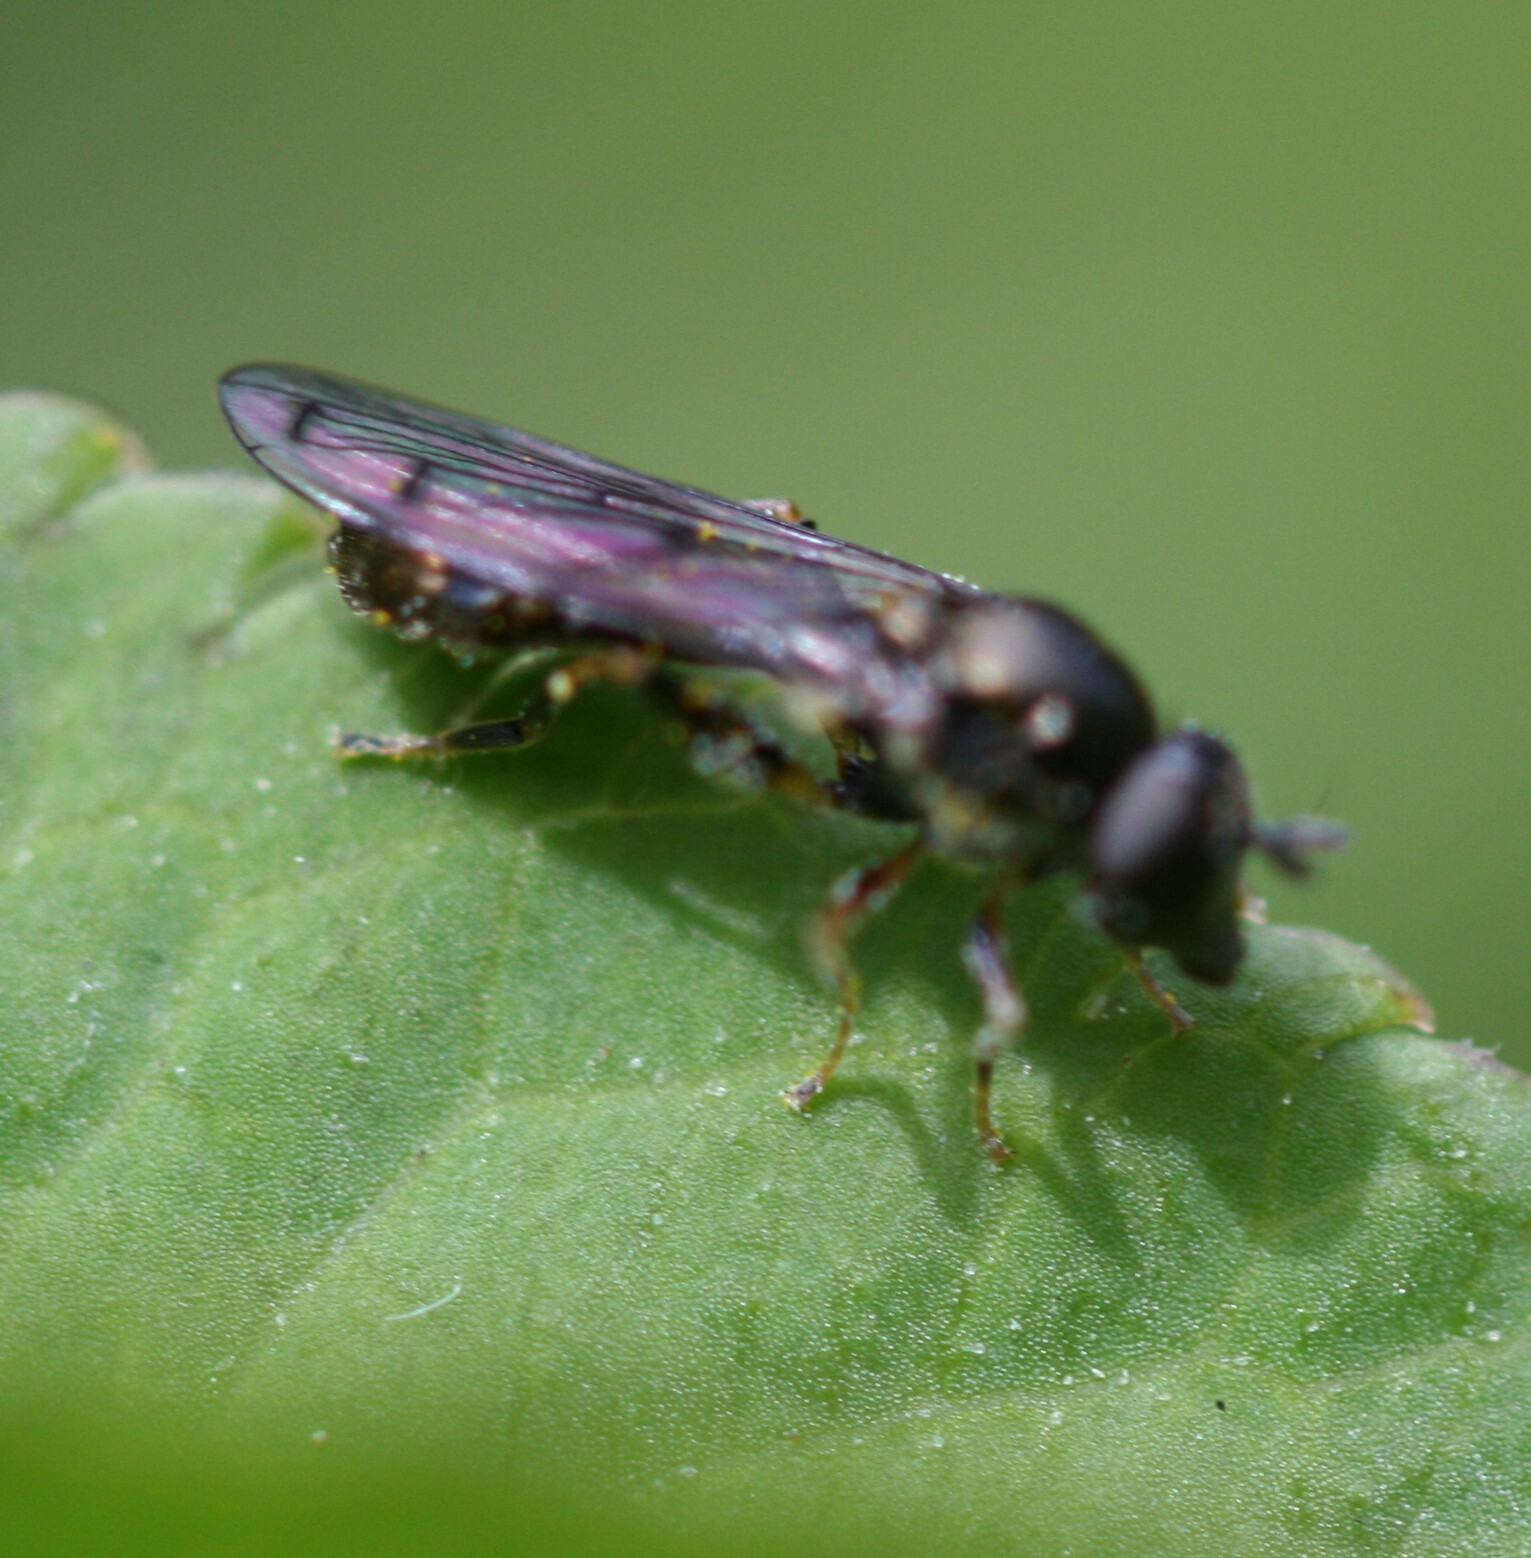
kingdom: Animalia
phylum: Arthropoda
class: Insecta
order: Diptera
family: Syrphidae
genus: Neoascia
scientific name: Neoascia
